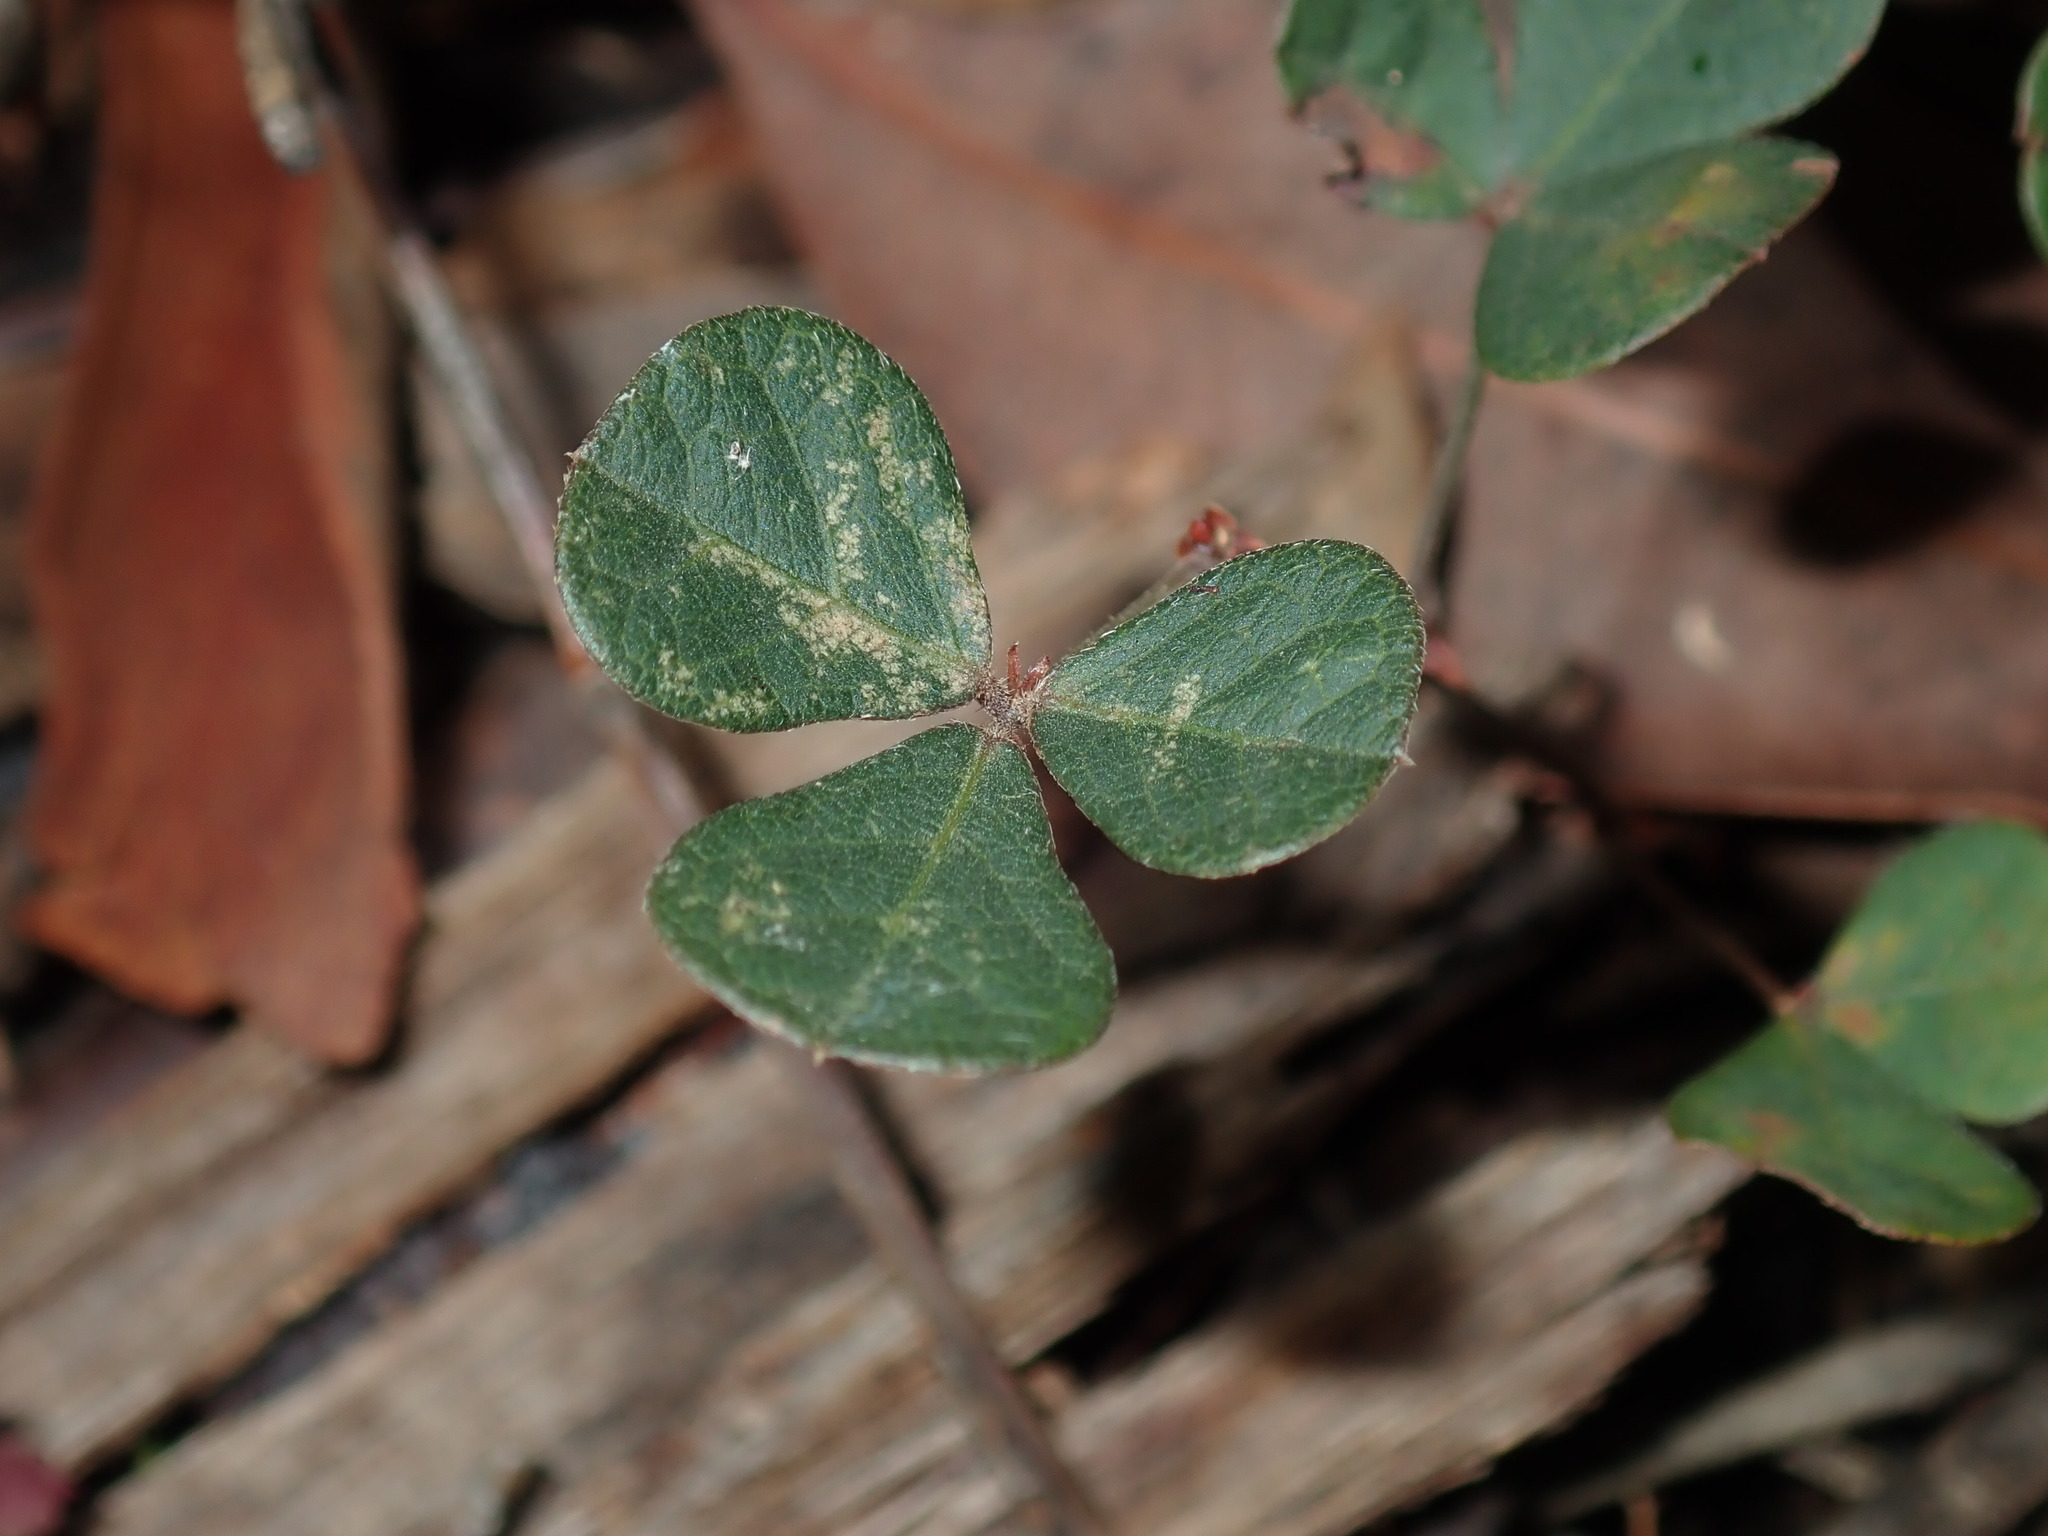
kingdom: Plantae
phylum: Tracheophyta
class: Magnoliopsida
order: Fabales
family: Fabaceae
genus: Pullenia
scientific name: Pullenia gunnii
